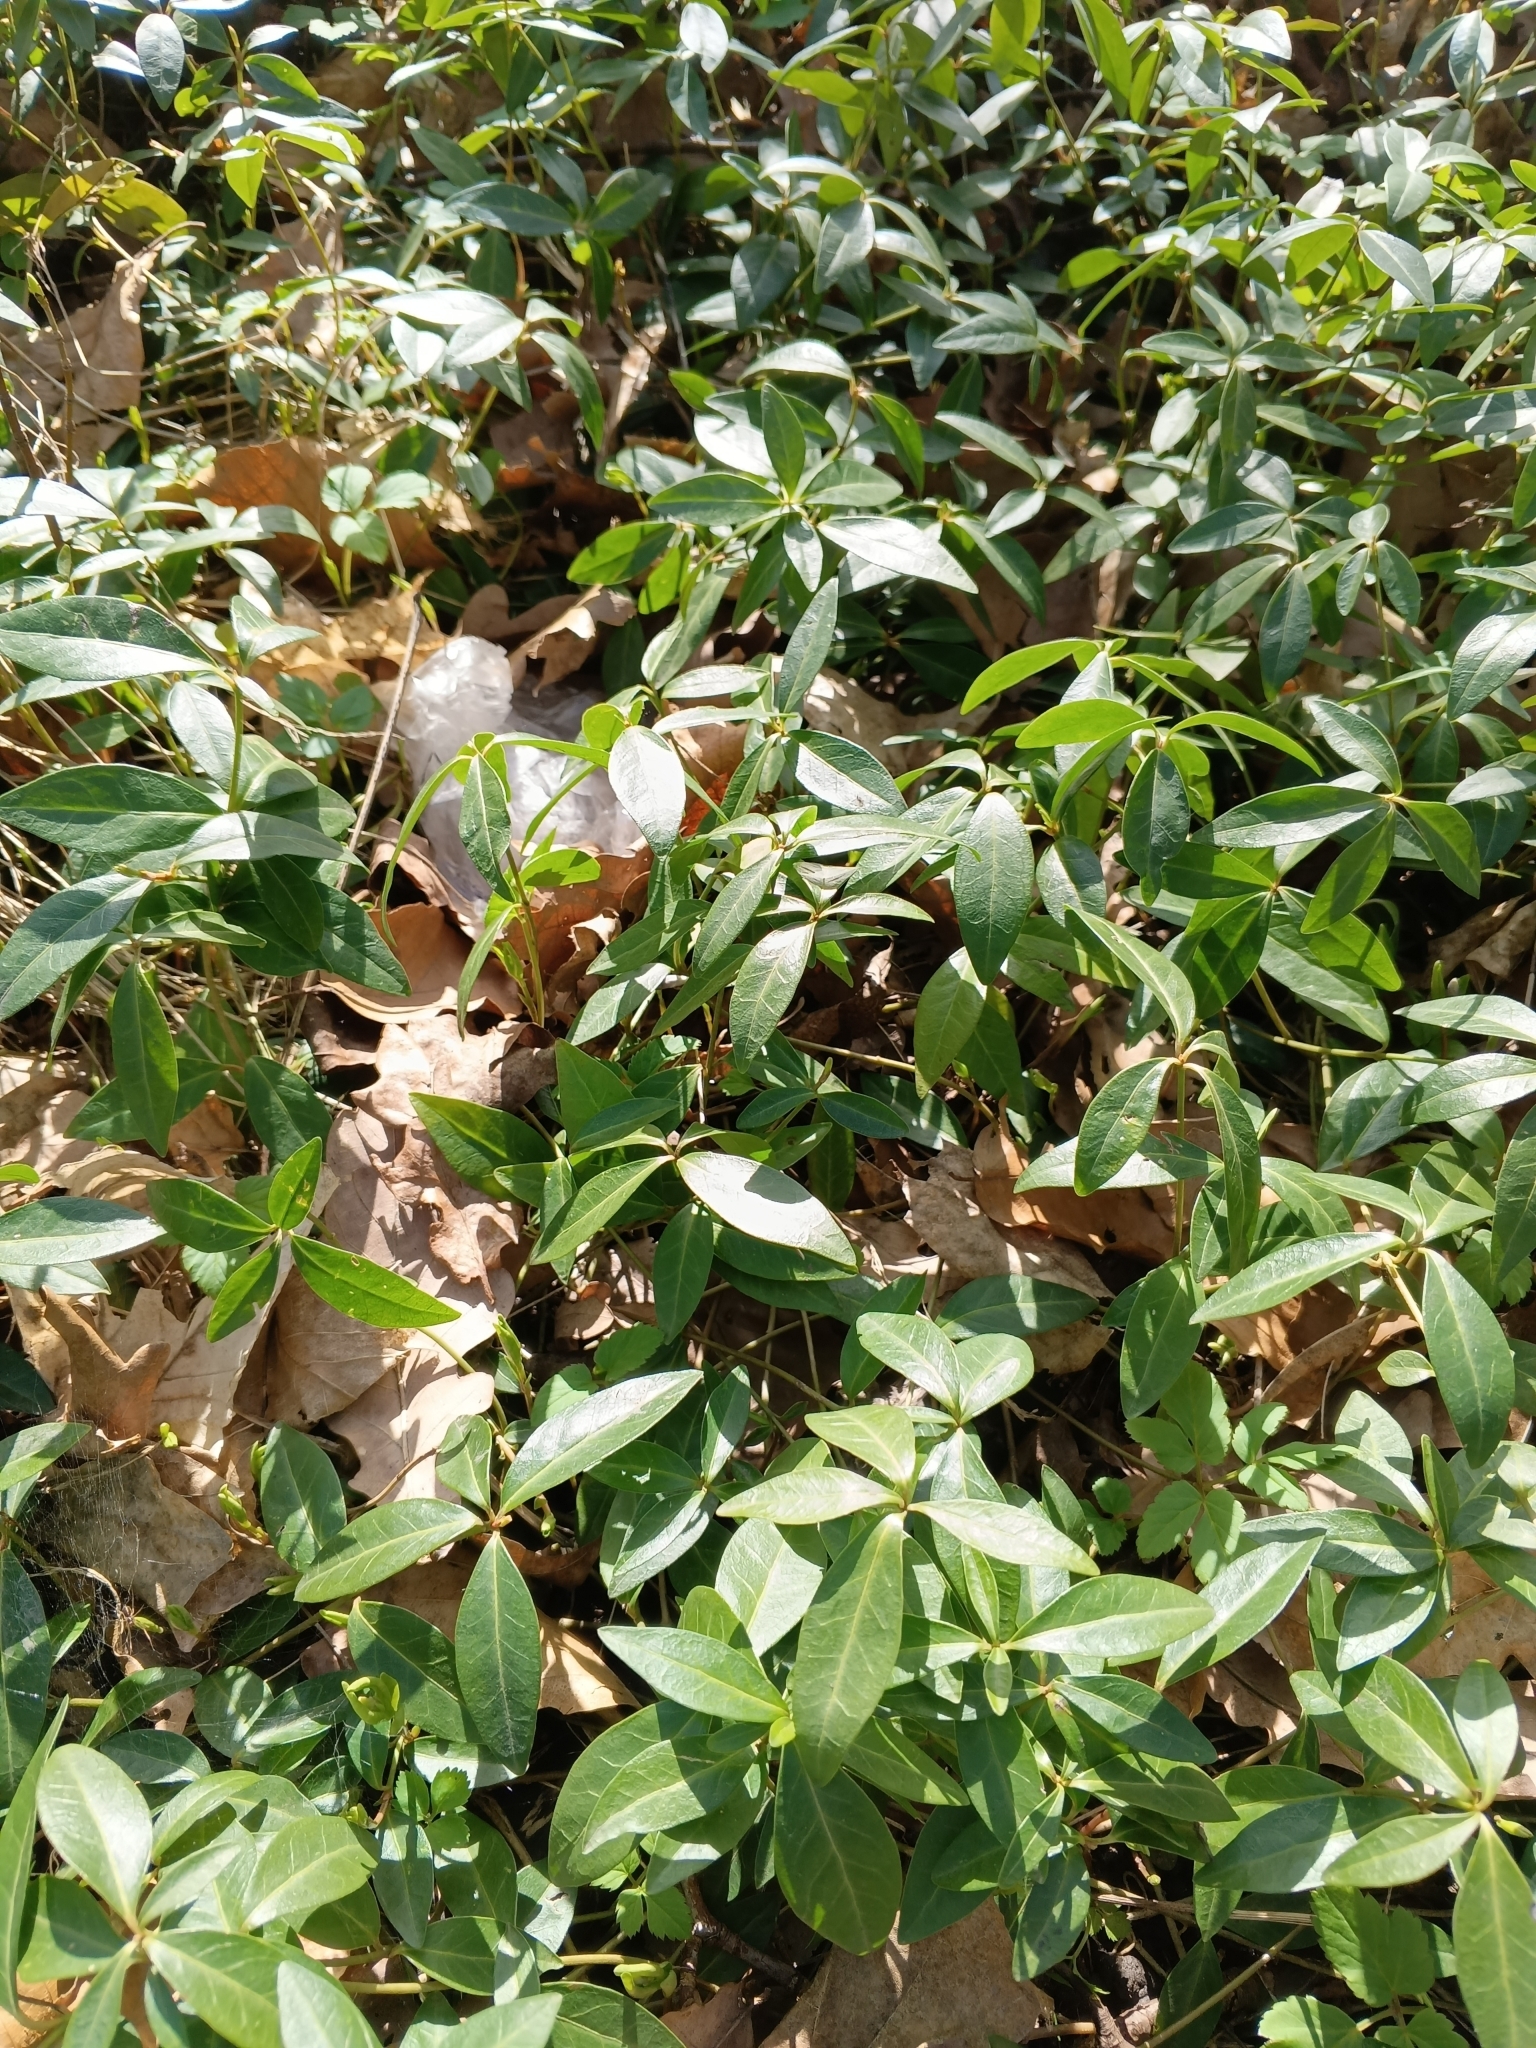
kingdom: Plantae
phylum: Tracheophyta
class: Magnoliopsida
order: Gentianales
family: Apocynaceae
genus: Vinca
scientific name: Vinca minor
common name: Lesser periwinkle
